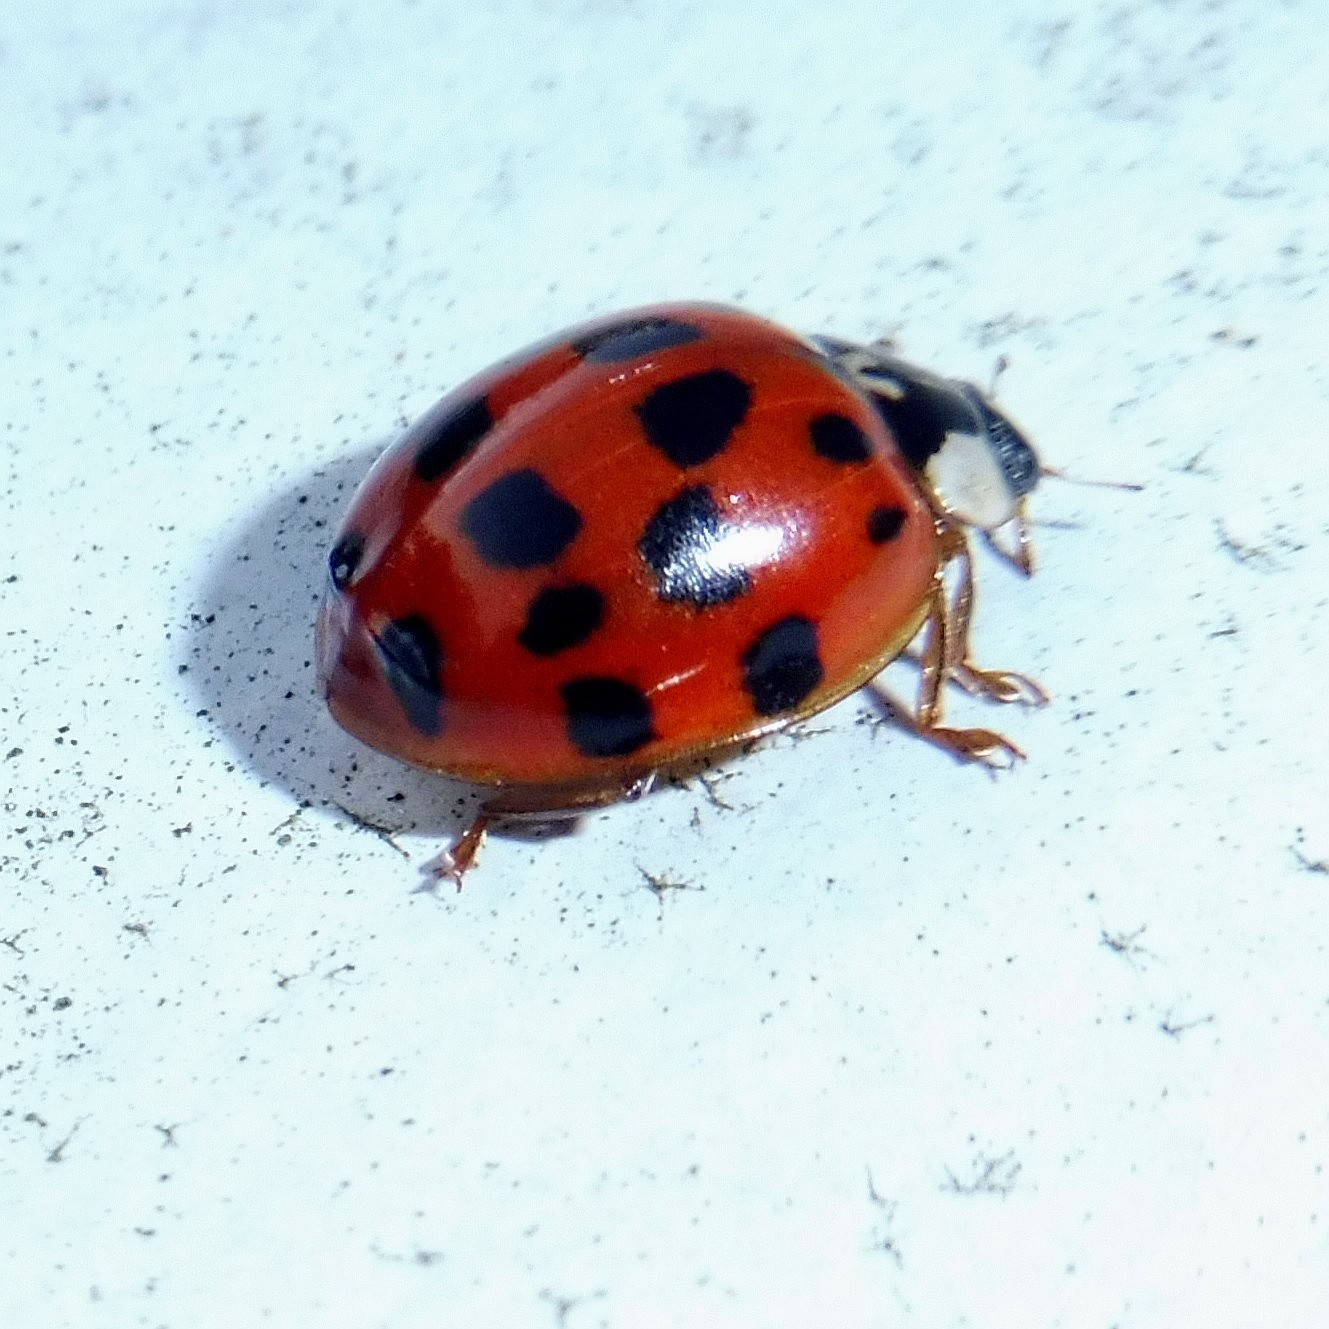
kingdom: Animalia
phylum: Arthropoda
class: Insecta
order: Coleoptera
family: Coccinellidae
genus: Harmonia
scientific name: Harmonia axyridis
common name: Harlequin ladybird
